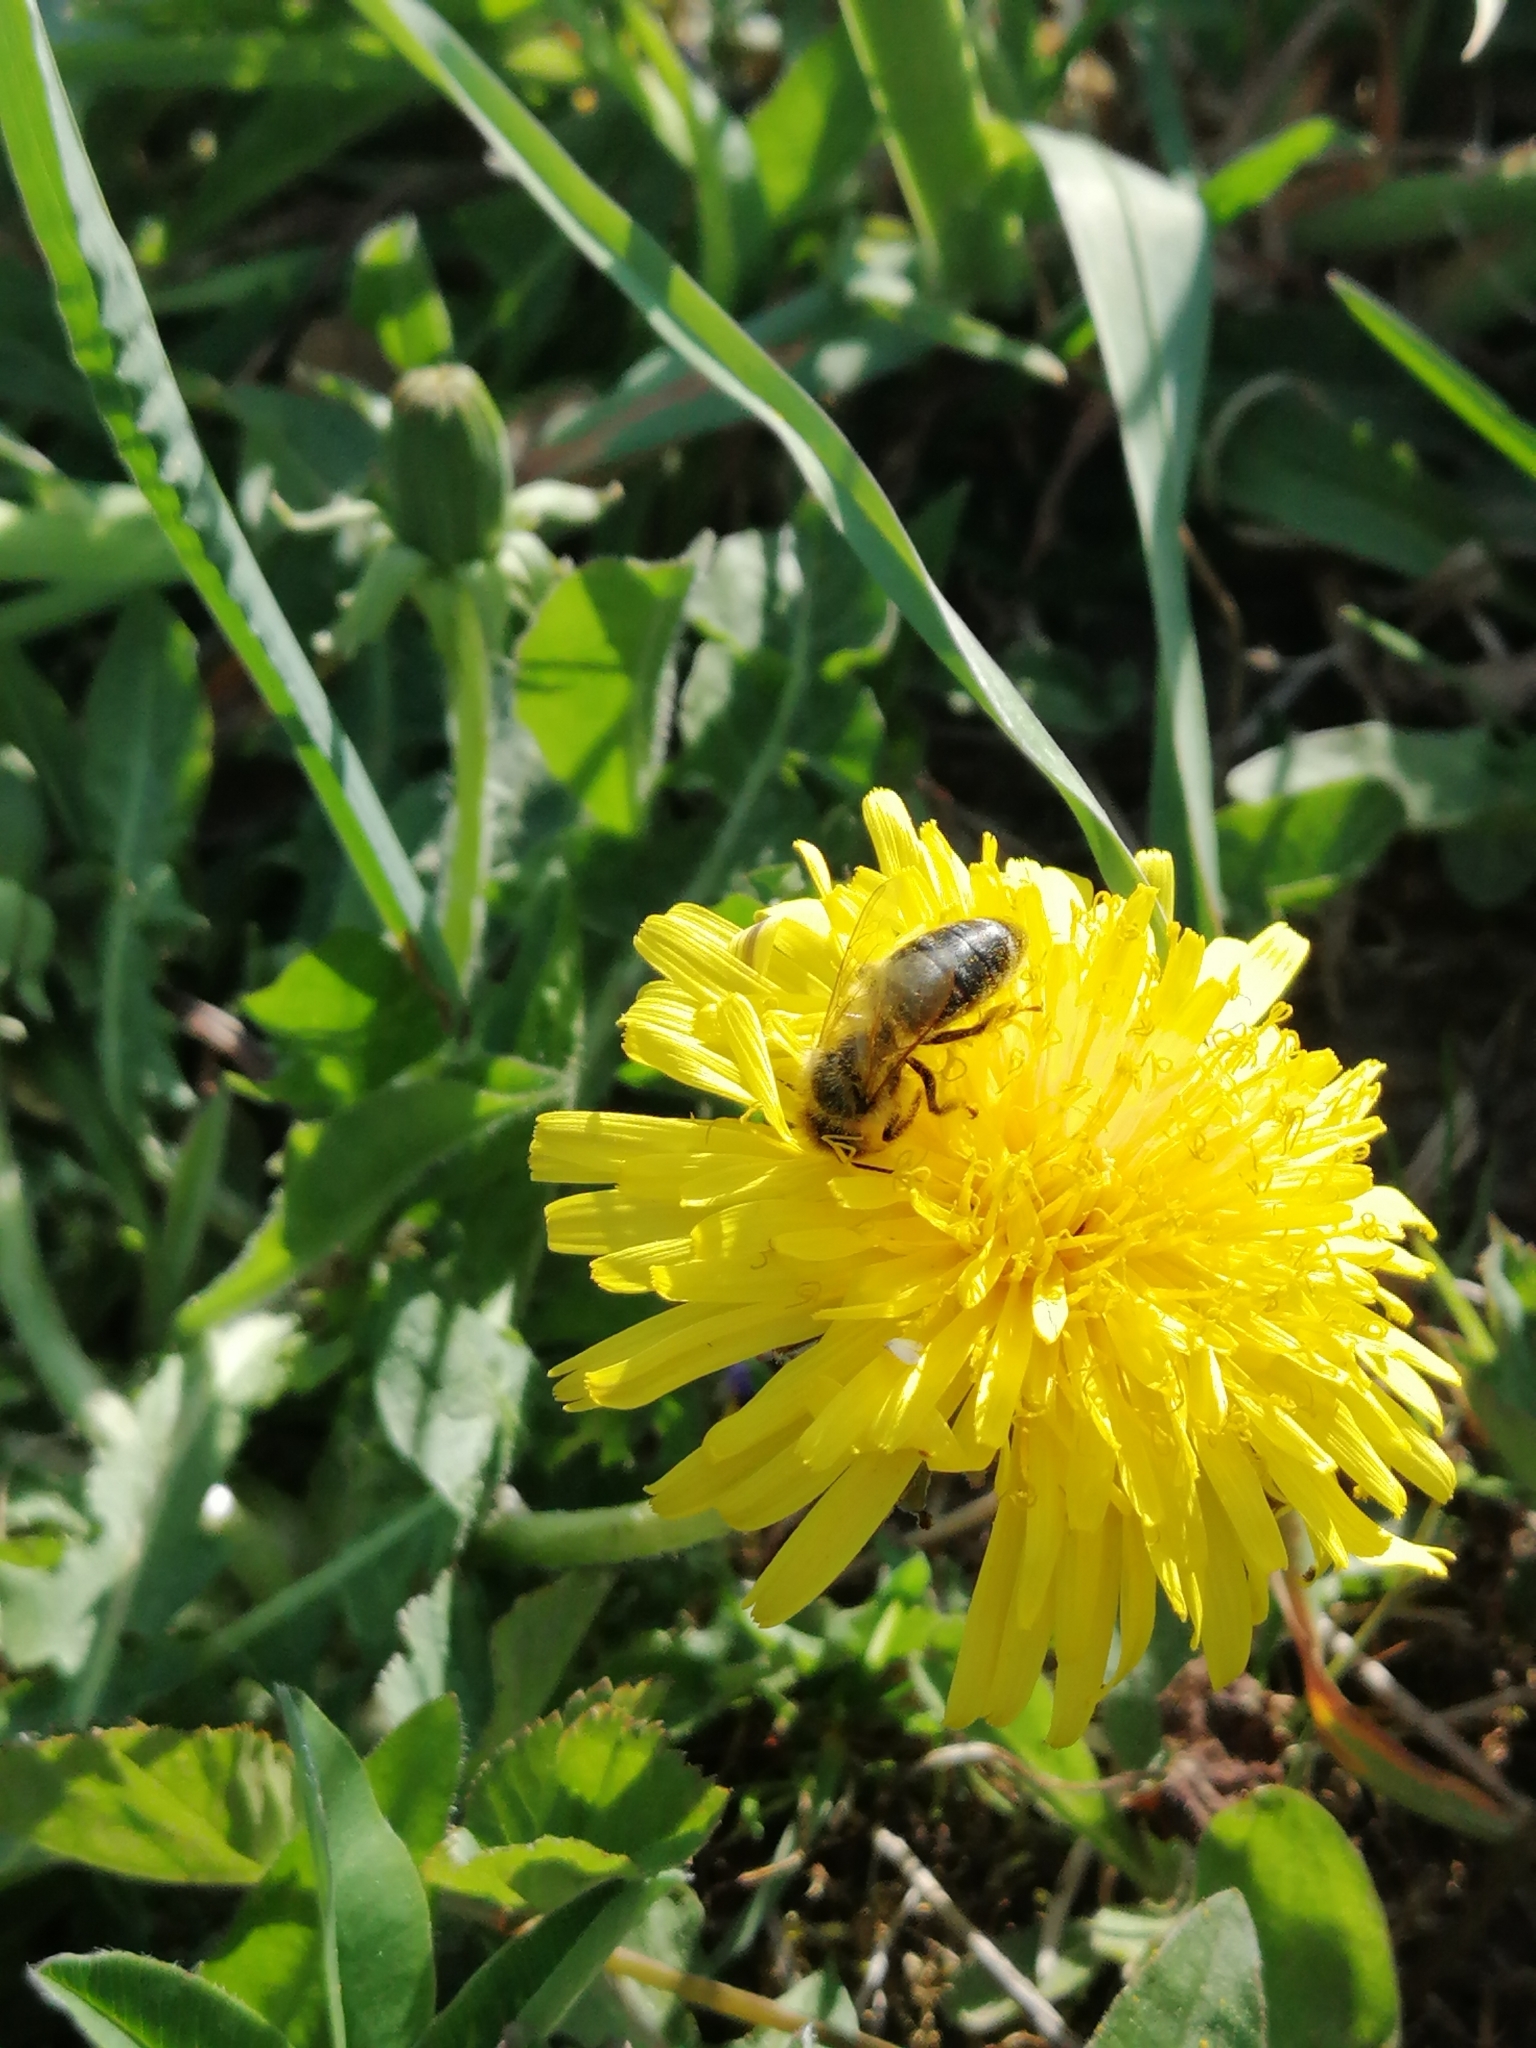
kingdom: Plantae
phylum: Tracheophyta
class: Magnoliopsida
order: Asterales
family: Asteraceae
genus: Taraxacum
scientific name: Taraxacum officinale
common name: Common dandelion
